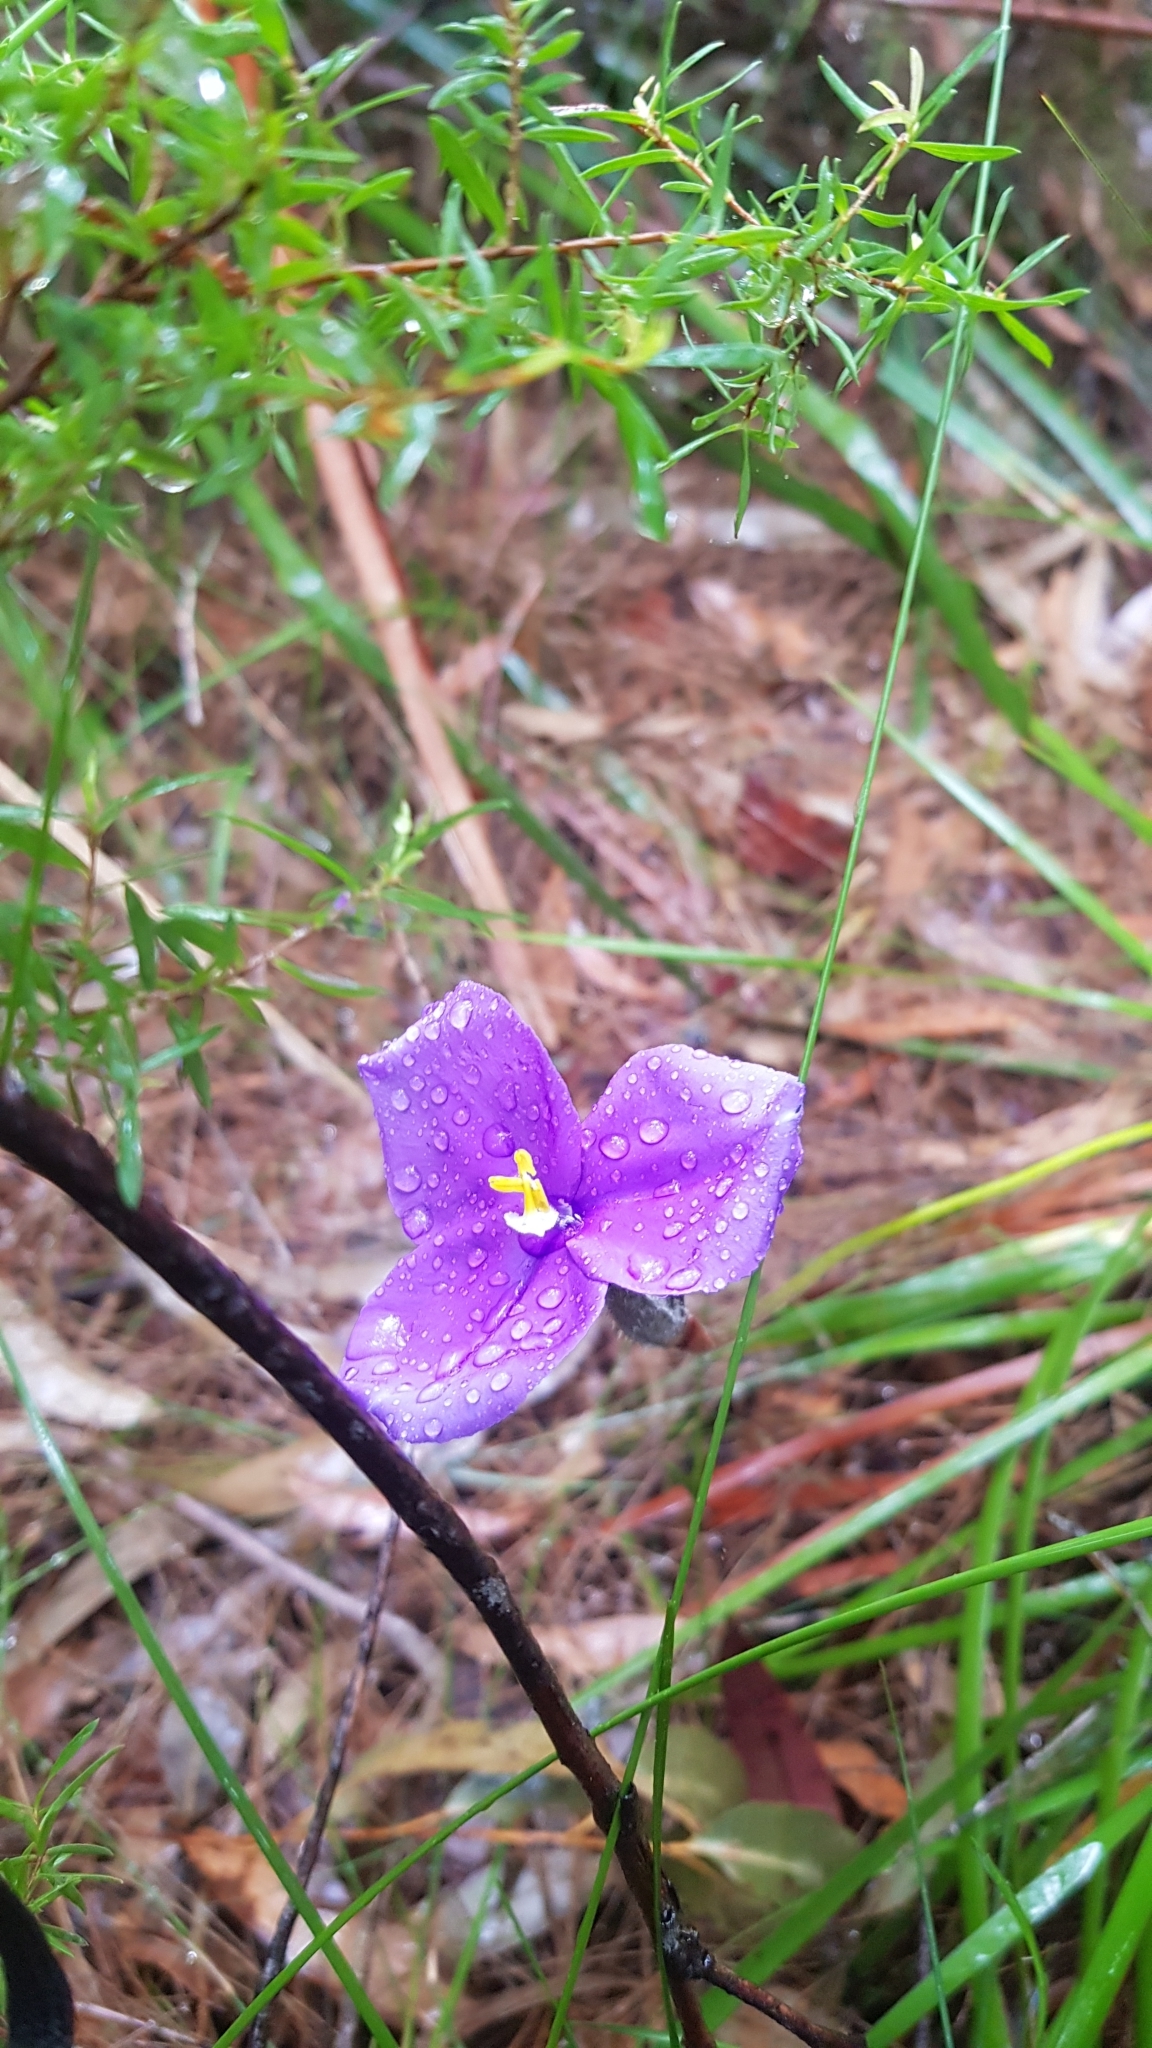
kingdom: Plantae
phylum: Tracheophyta
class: Liliopsida
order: Asparagales
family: Iridaceae
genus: Patersonia
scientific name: Patersonia sericea
